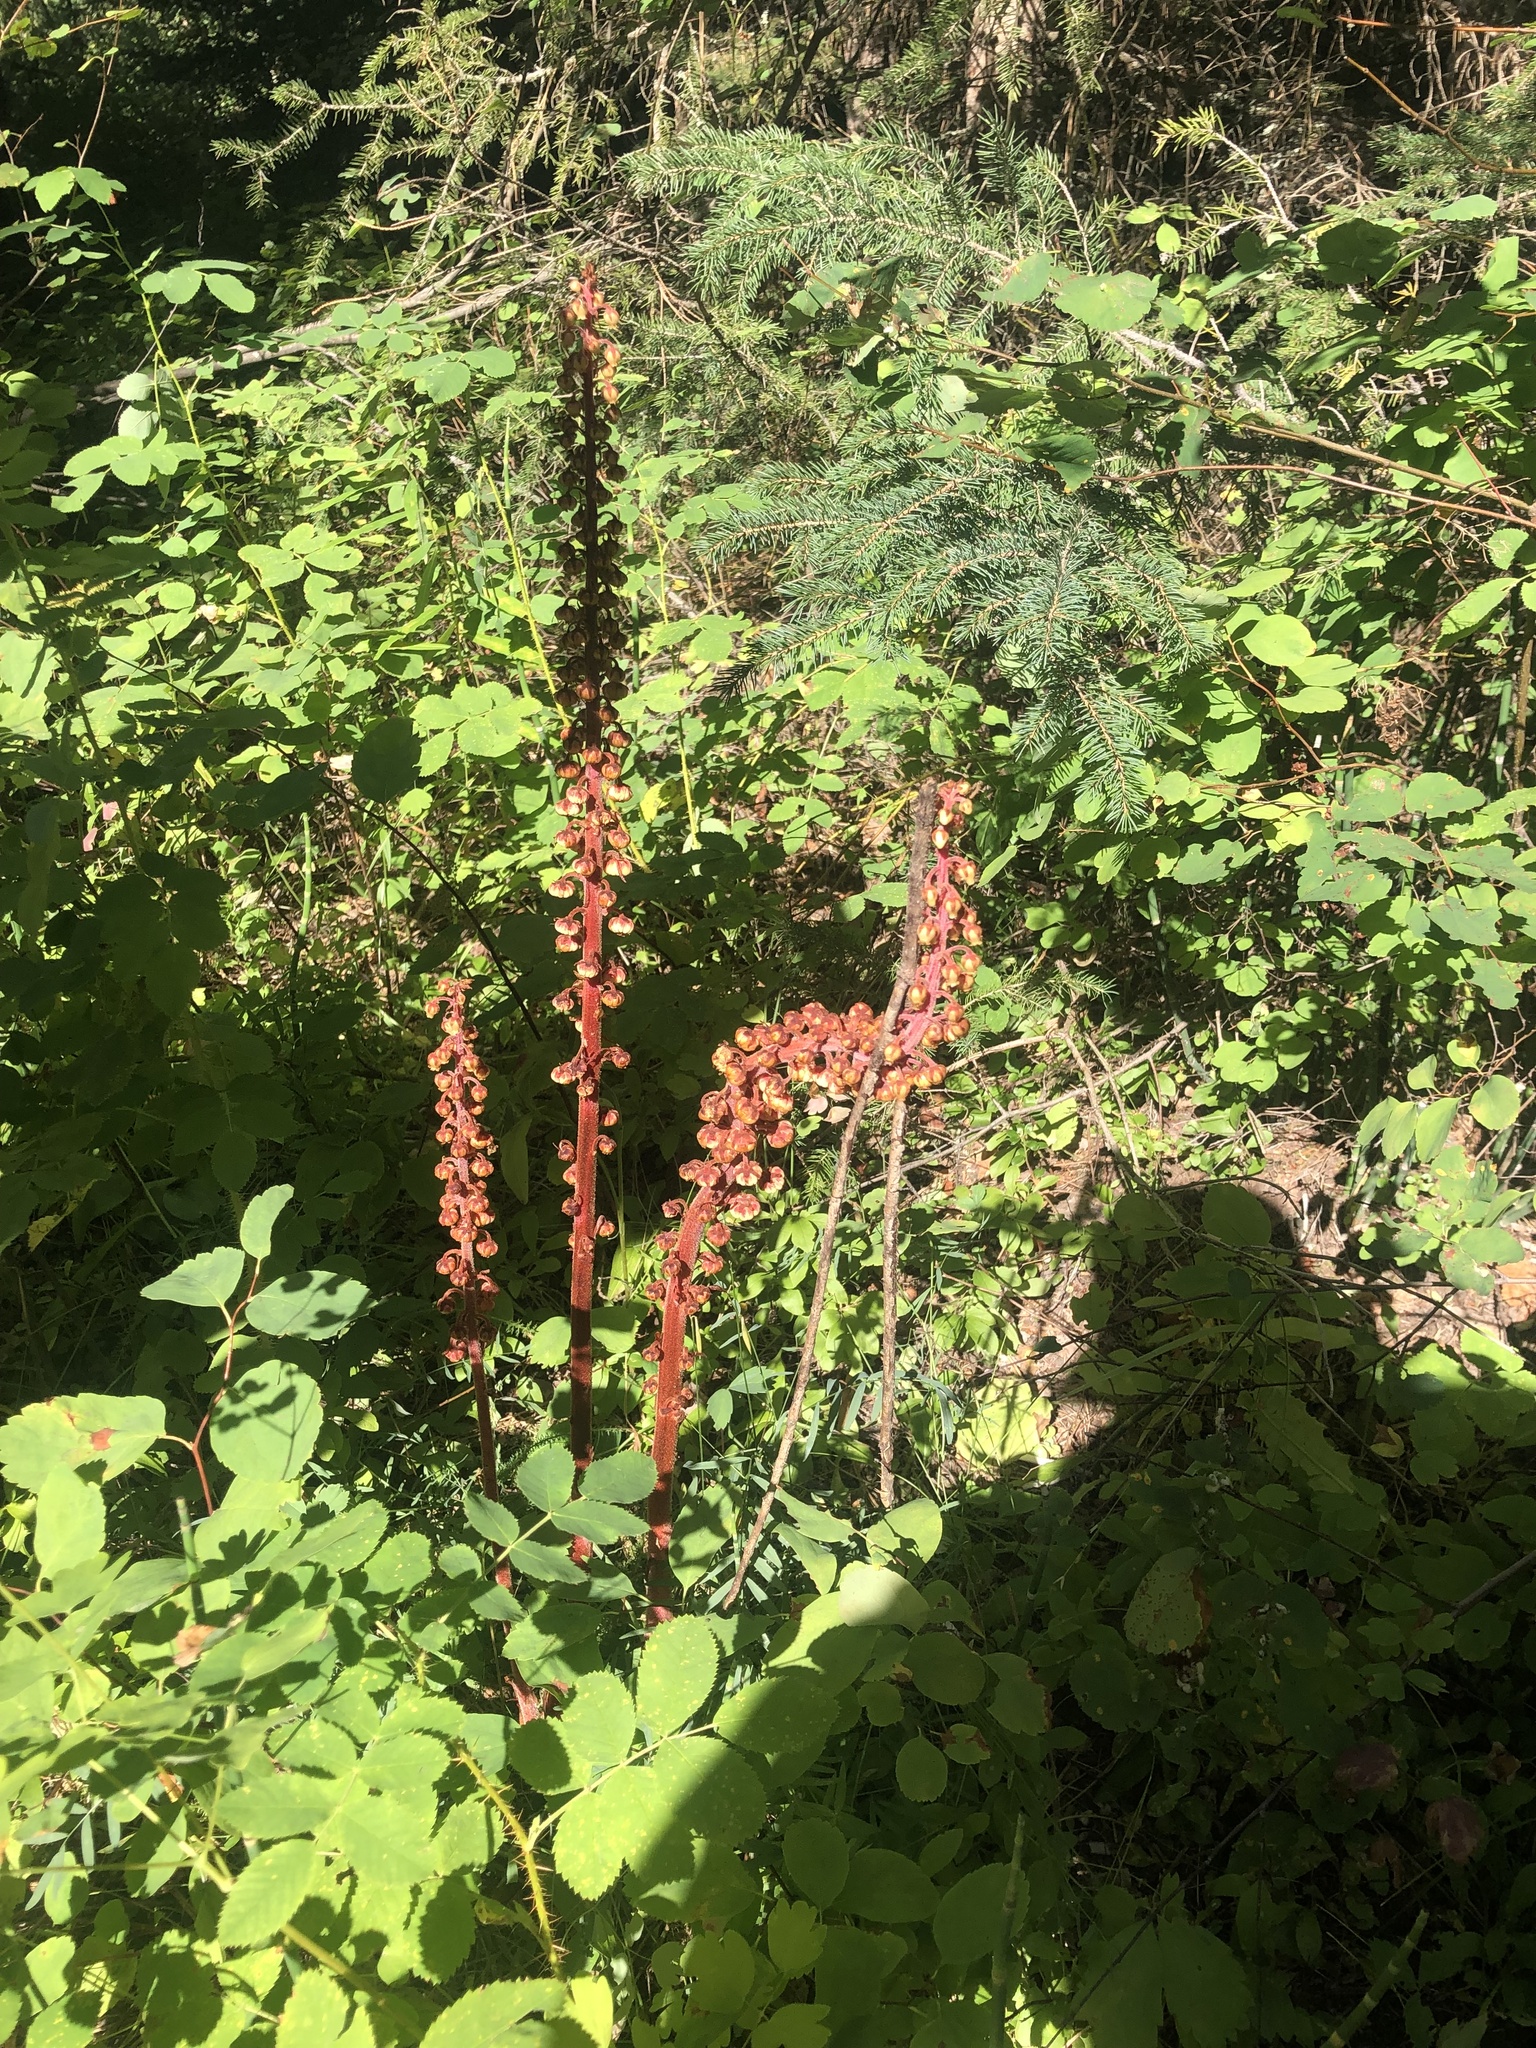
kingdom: Plantae
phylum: Tracheophyta
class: Magnoliopsida
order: Ericales
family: Ericaceae
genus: Pterospora
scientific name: Pterospora andromedea
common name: Giant bird's-nest
